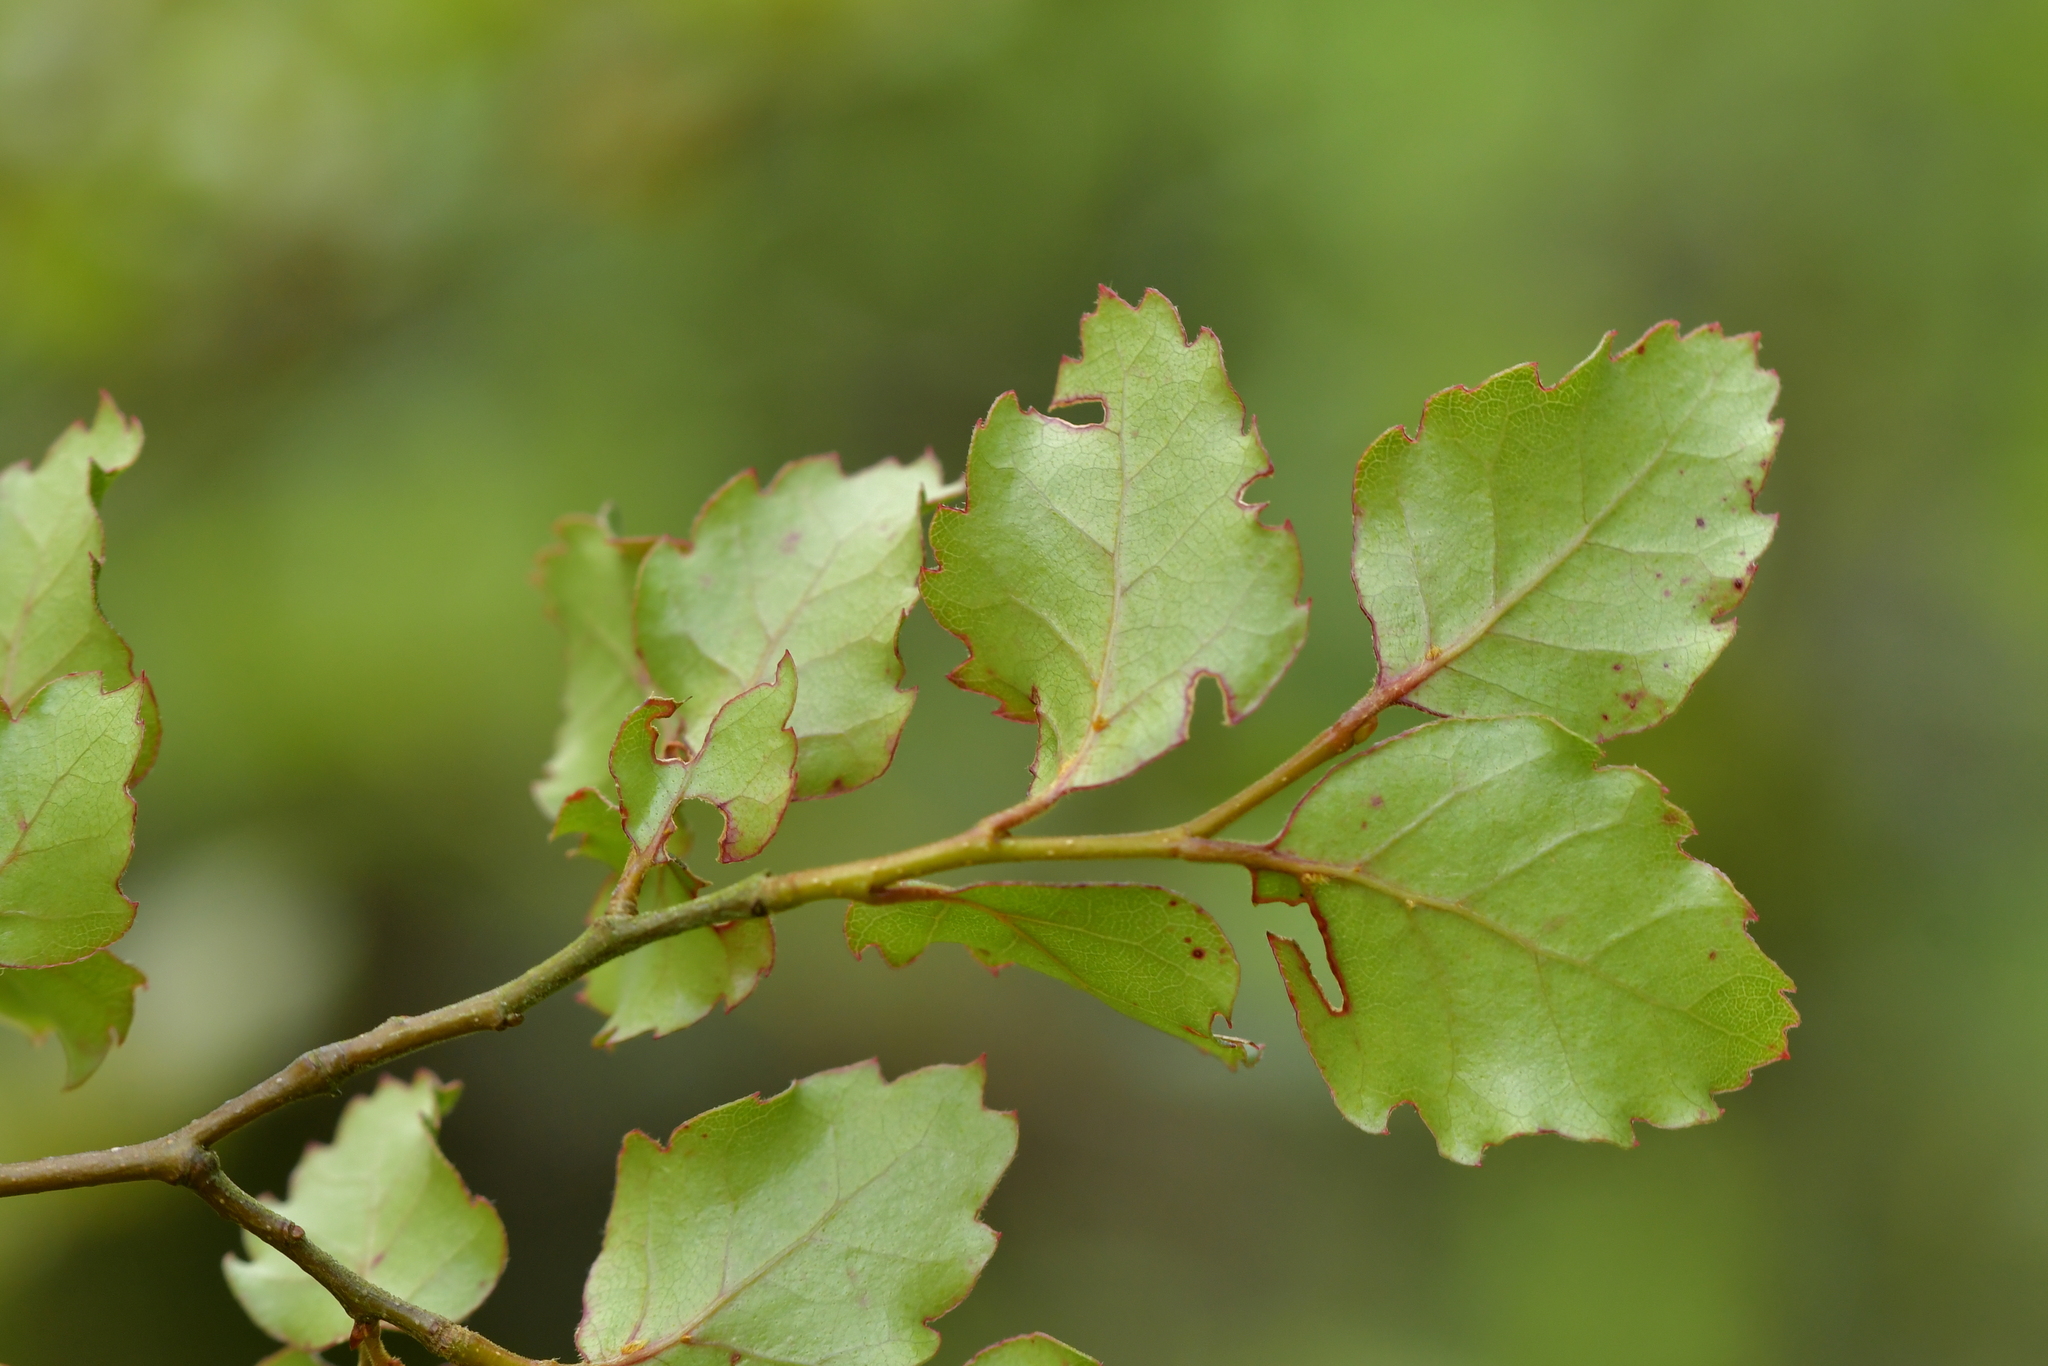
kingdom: Plantae
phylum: Tracheophyta
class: Magnoliopsida
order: Fagales
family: Nothofagaceae
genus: Nothofagus
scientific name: Nothofagus fusca
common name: Red beech
